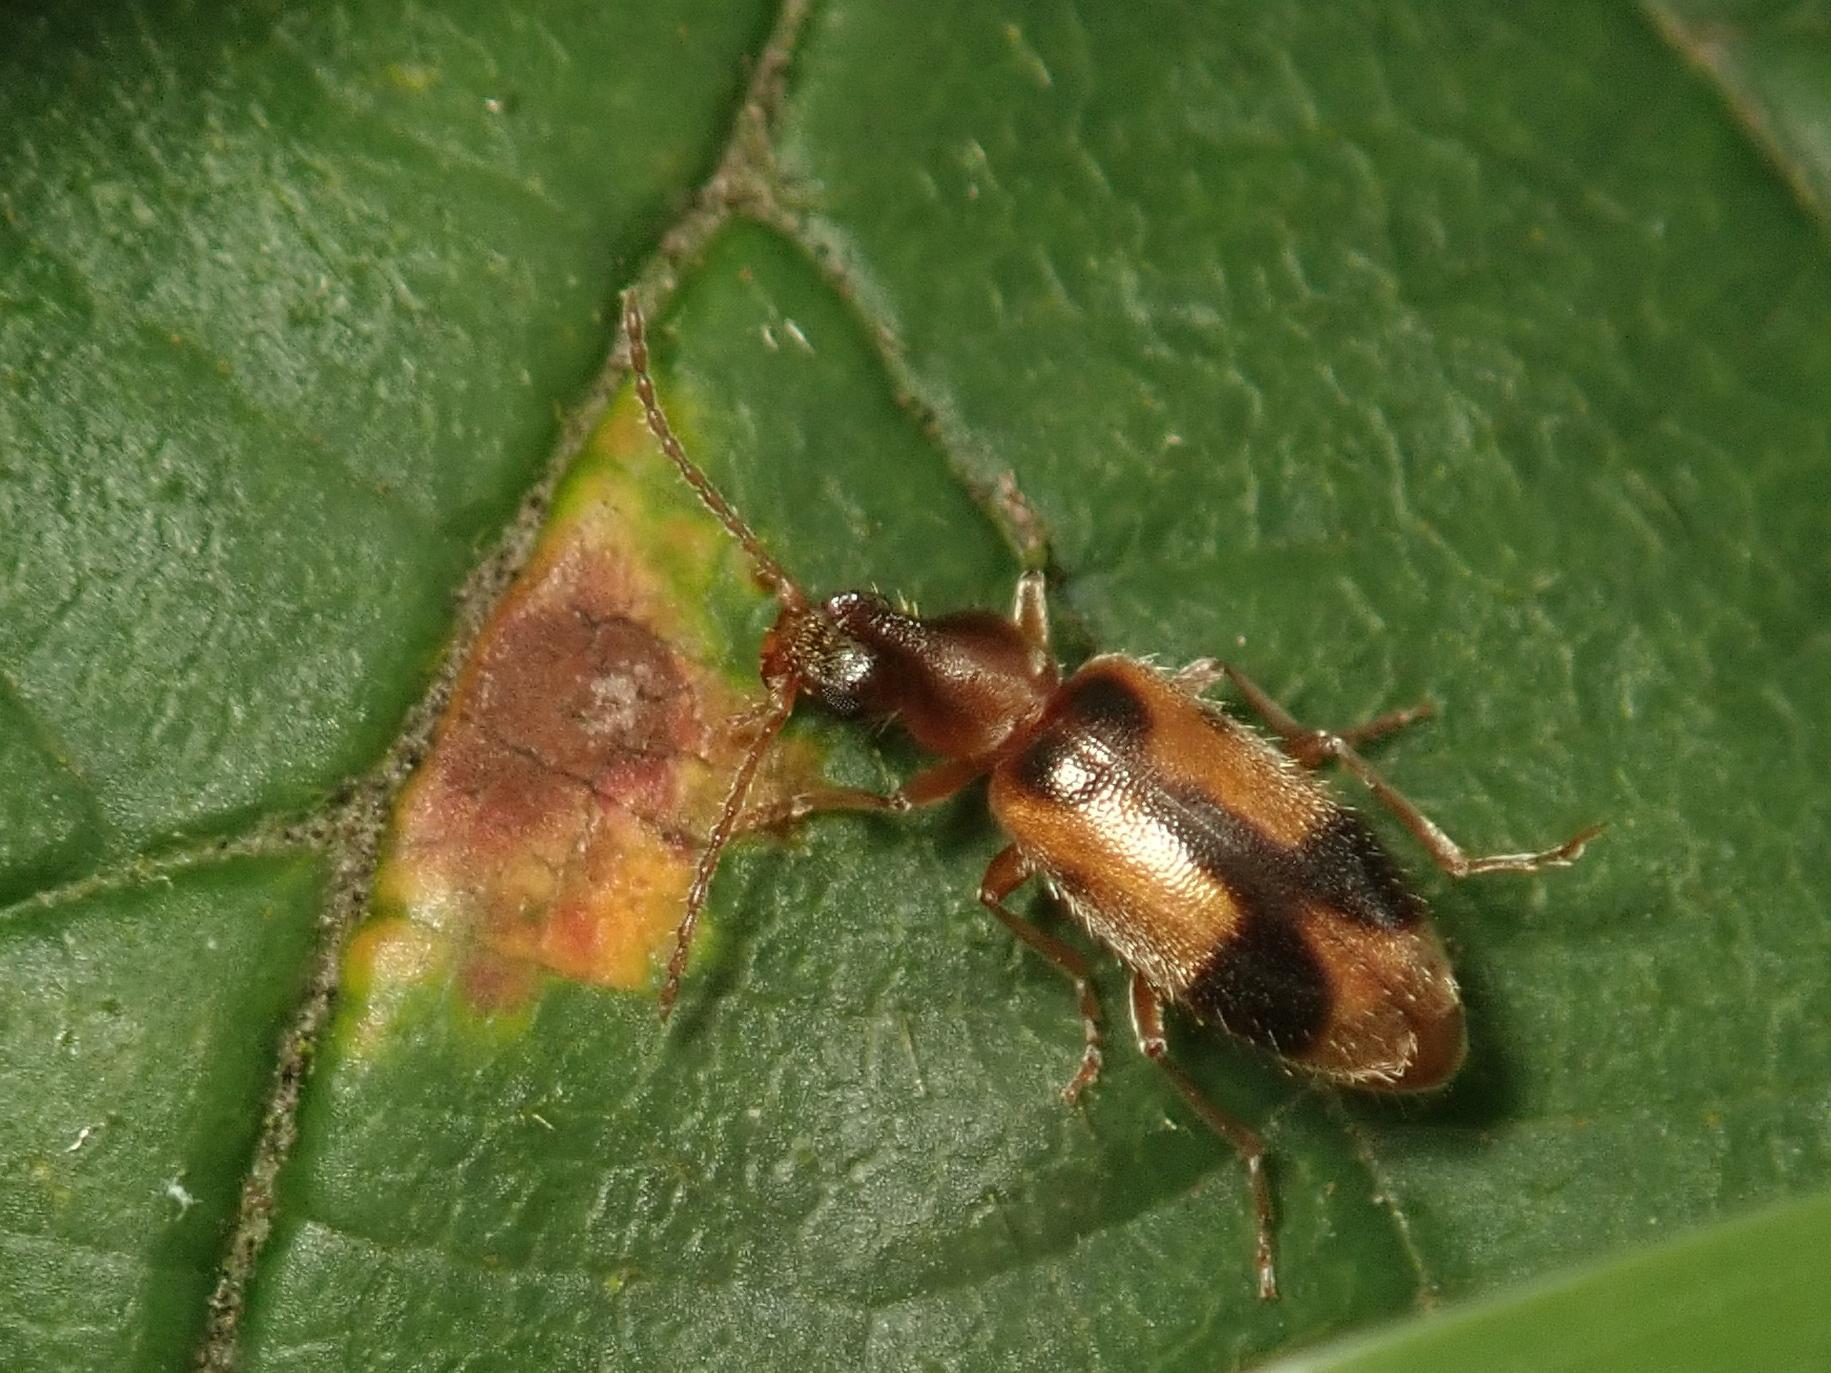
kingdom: Animalia
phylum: Arthropoda
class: Insecta
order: Coleoptera
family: Anthicidae
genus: Notoxus
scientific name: Notoxus monoceros
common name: Monoceros beetle
